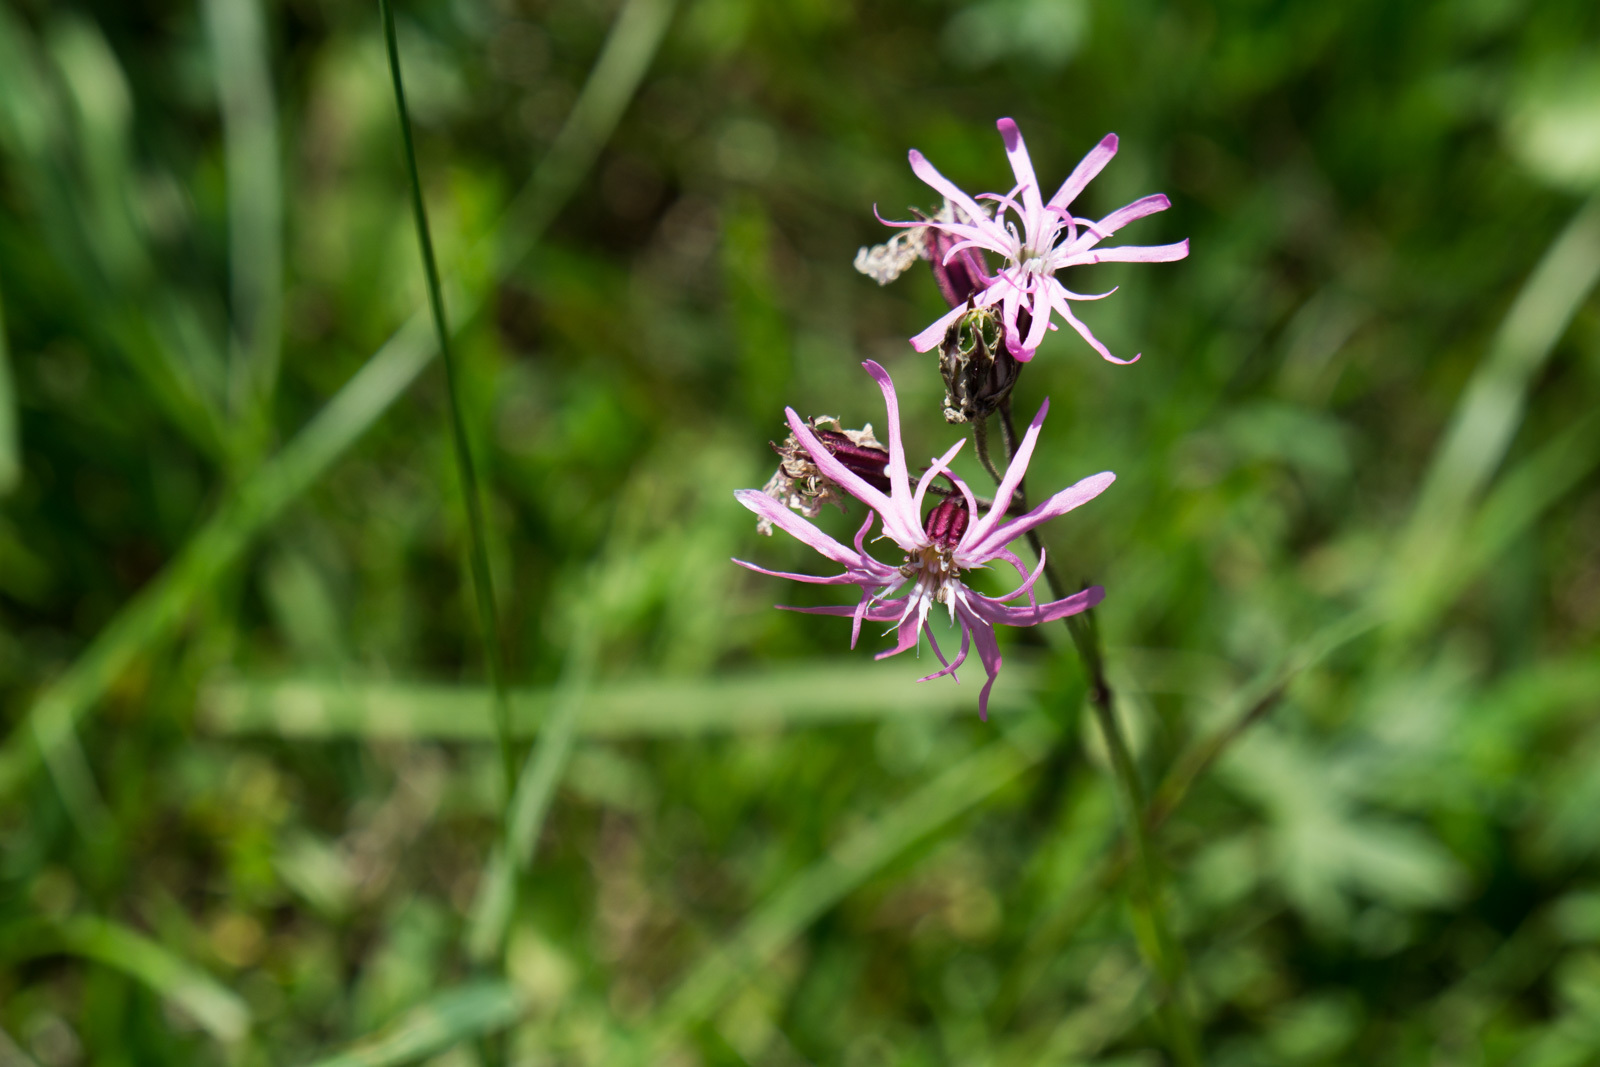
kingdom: Plantae
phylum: Tracheophyta
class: Magnoliopsida
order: Caryophyllales
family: Caryophyllaceae
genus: Silene
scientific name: Silene flos-cuculi
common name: Ragged-robin
